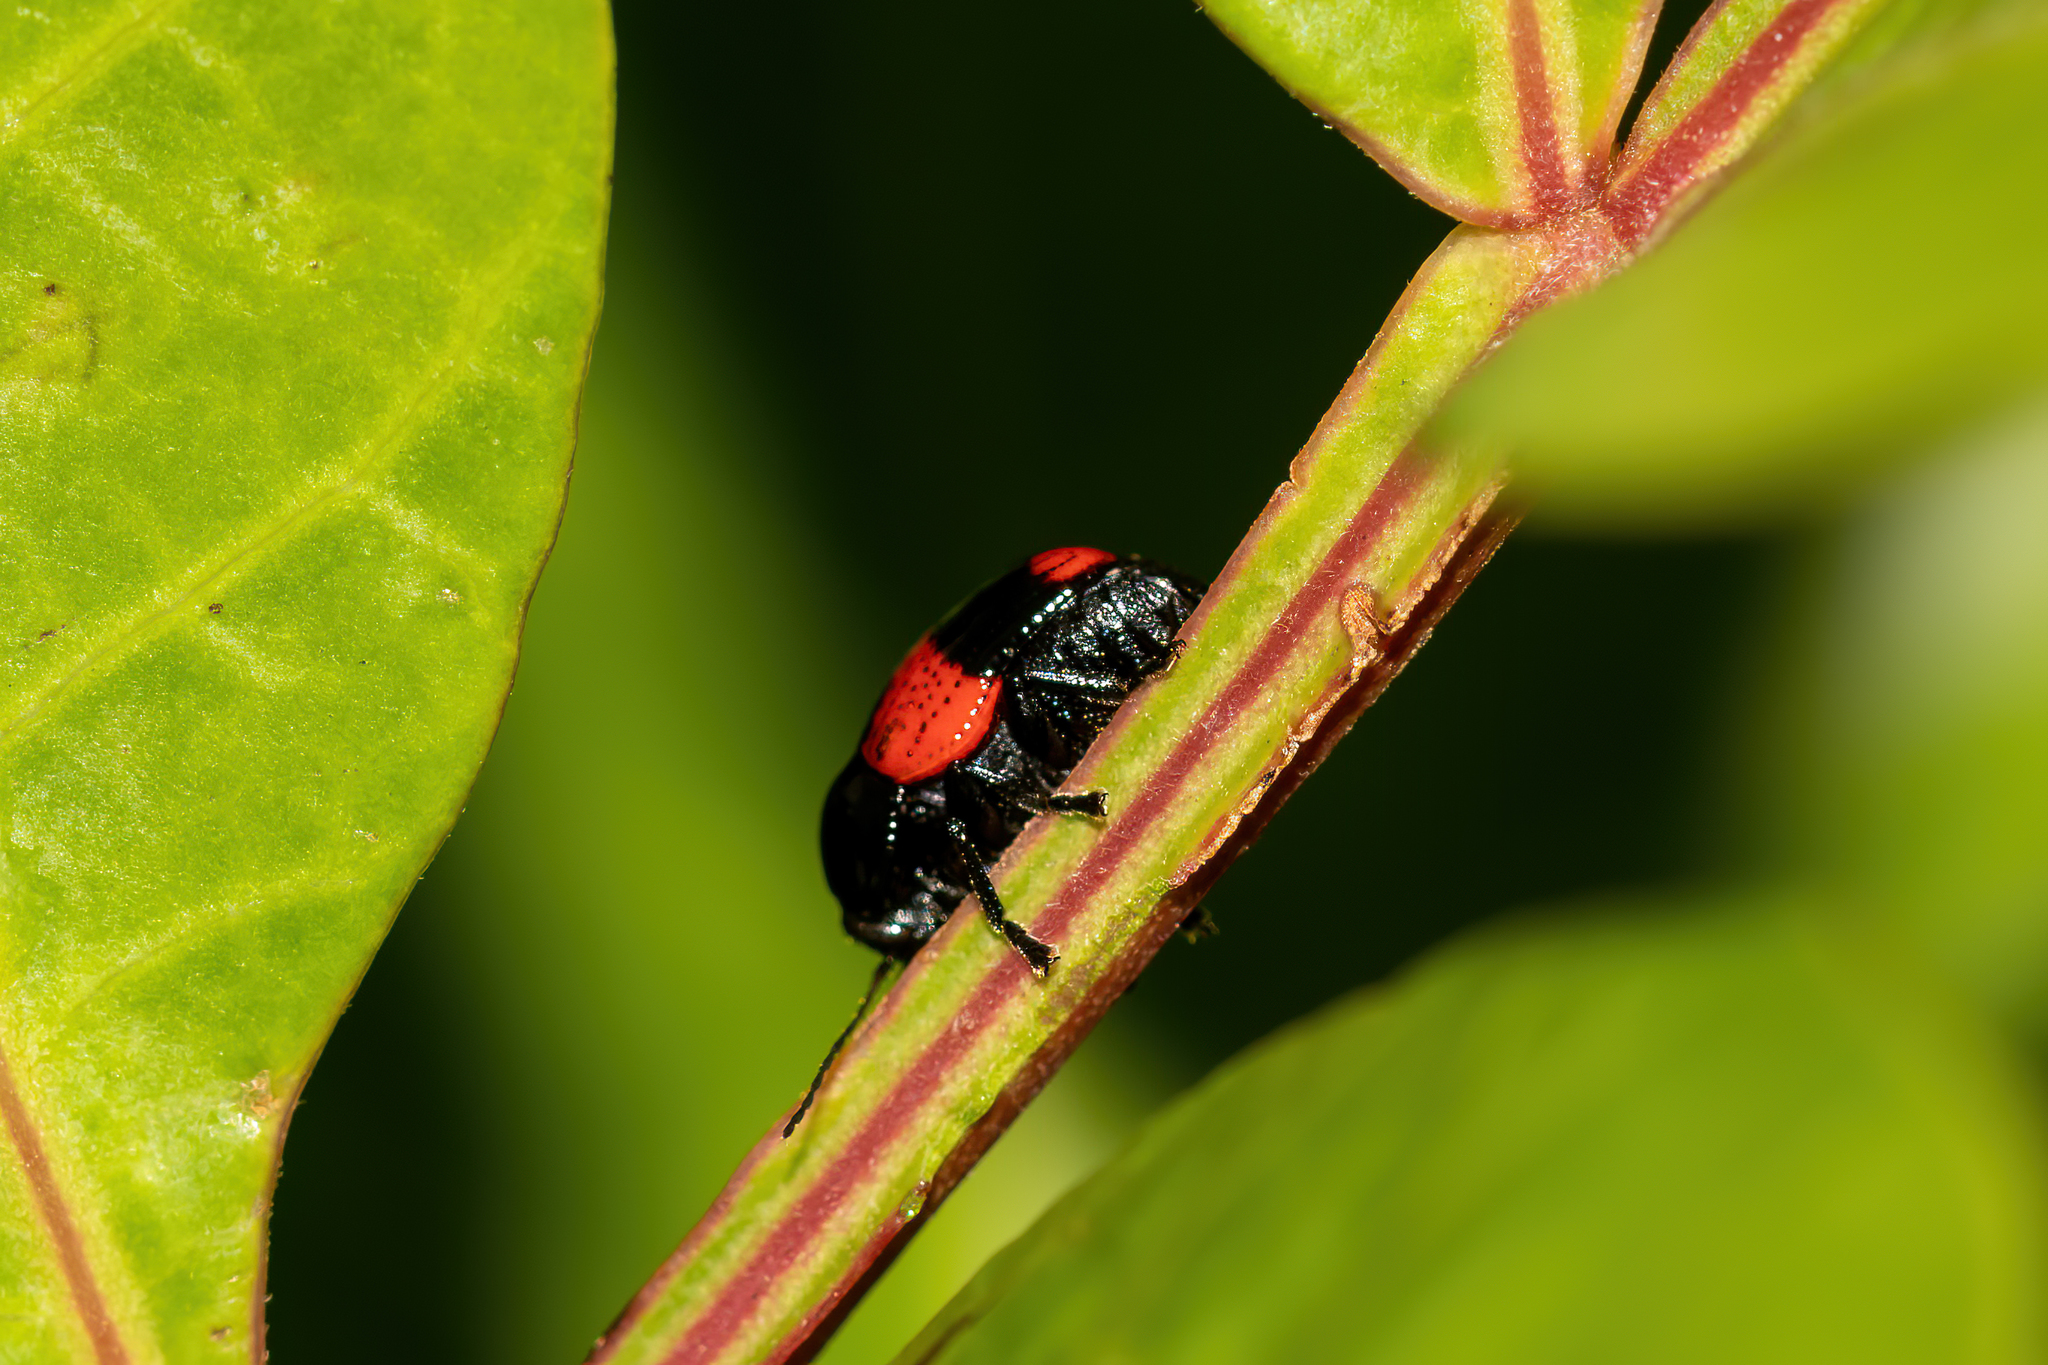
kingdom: Animalia
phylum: Arthropoda
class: Insecta
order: Coleoptera
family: Chrysomelidae
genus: Cryptocephalus
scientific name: Cryptocephalus binominis
